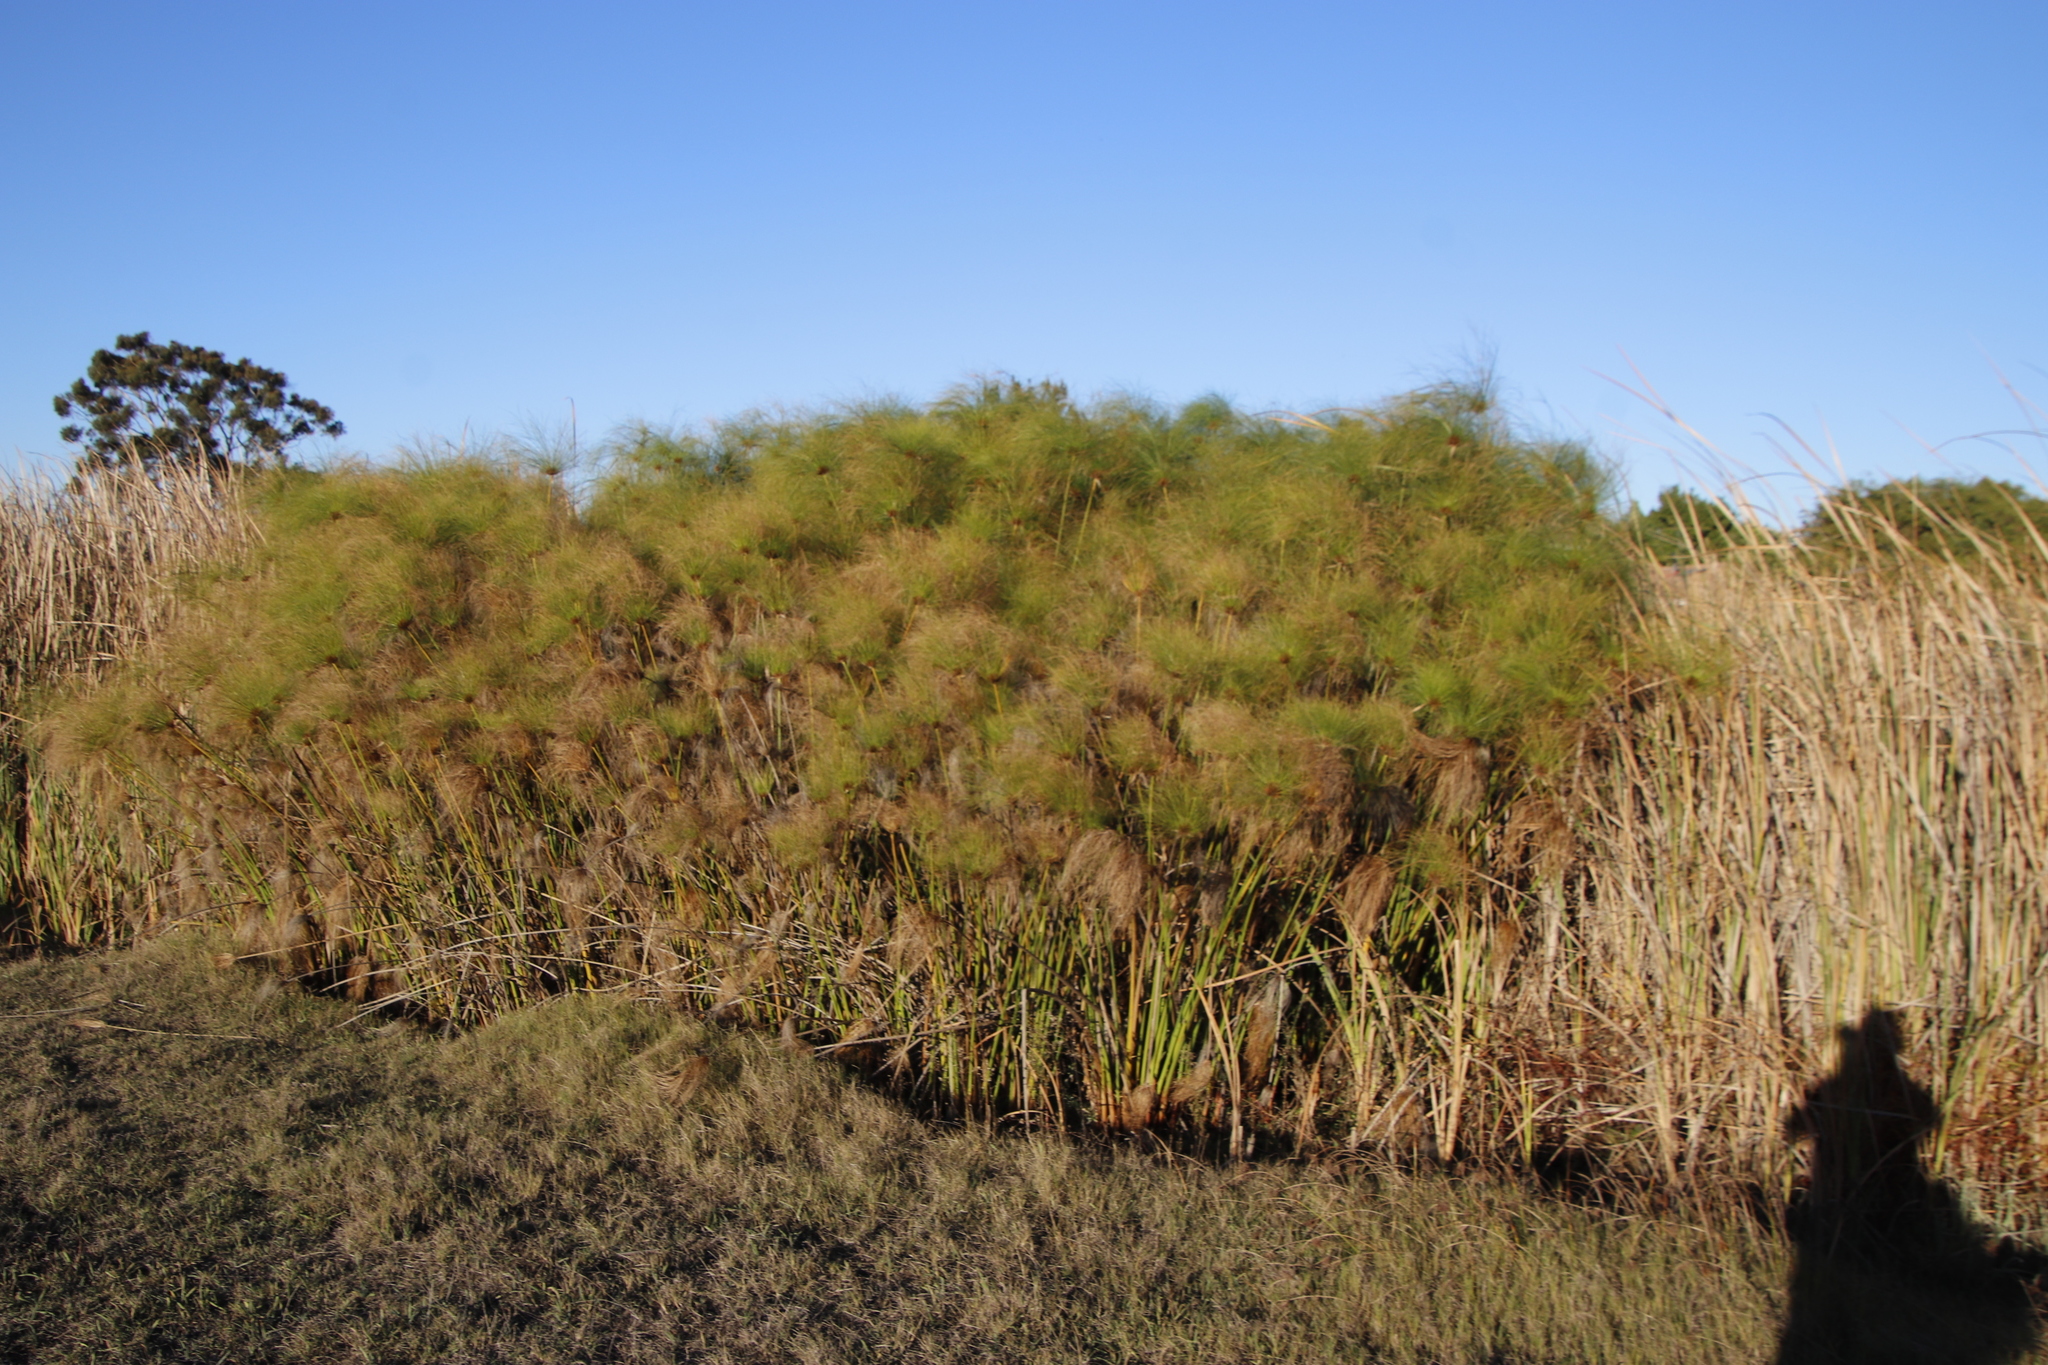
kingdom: Plantae
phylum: Tracheophyta
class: Liliopsida
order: Poales
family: Cyperaceae
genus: Cyperus
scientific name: Cyperus papyrus
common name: Papyrus
